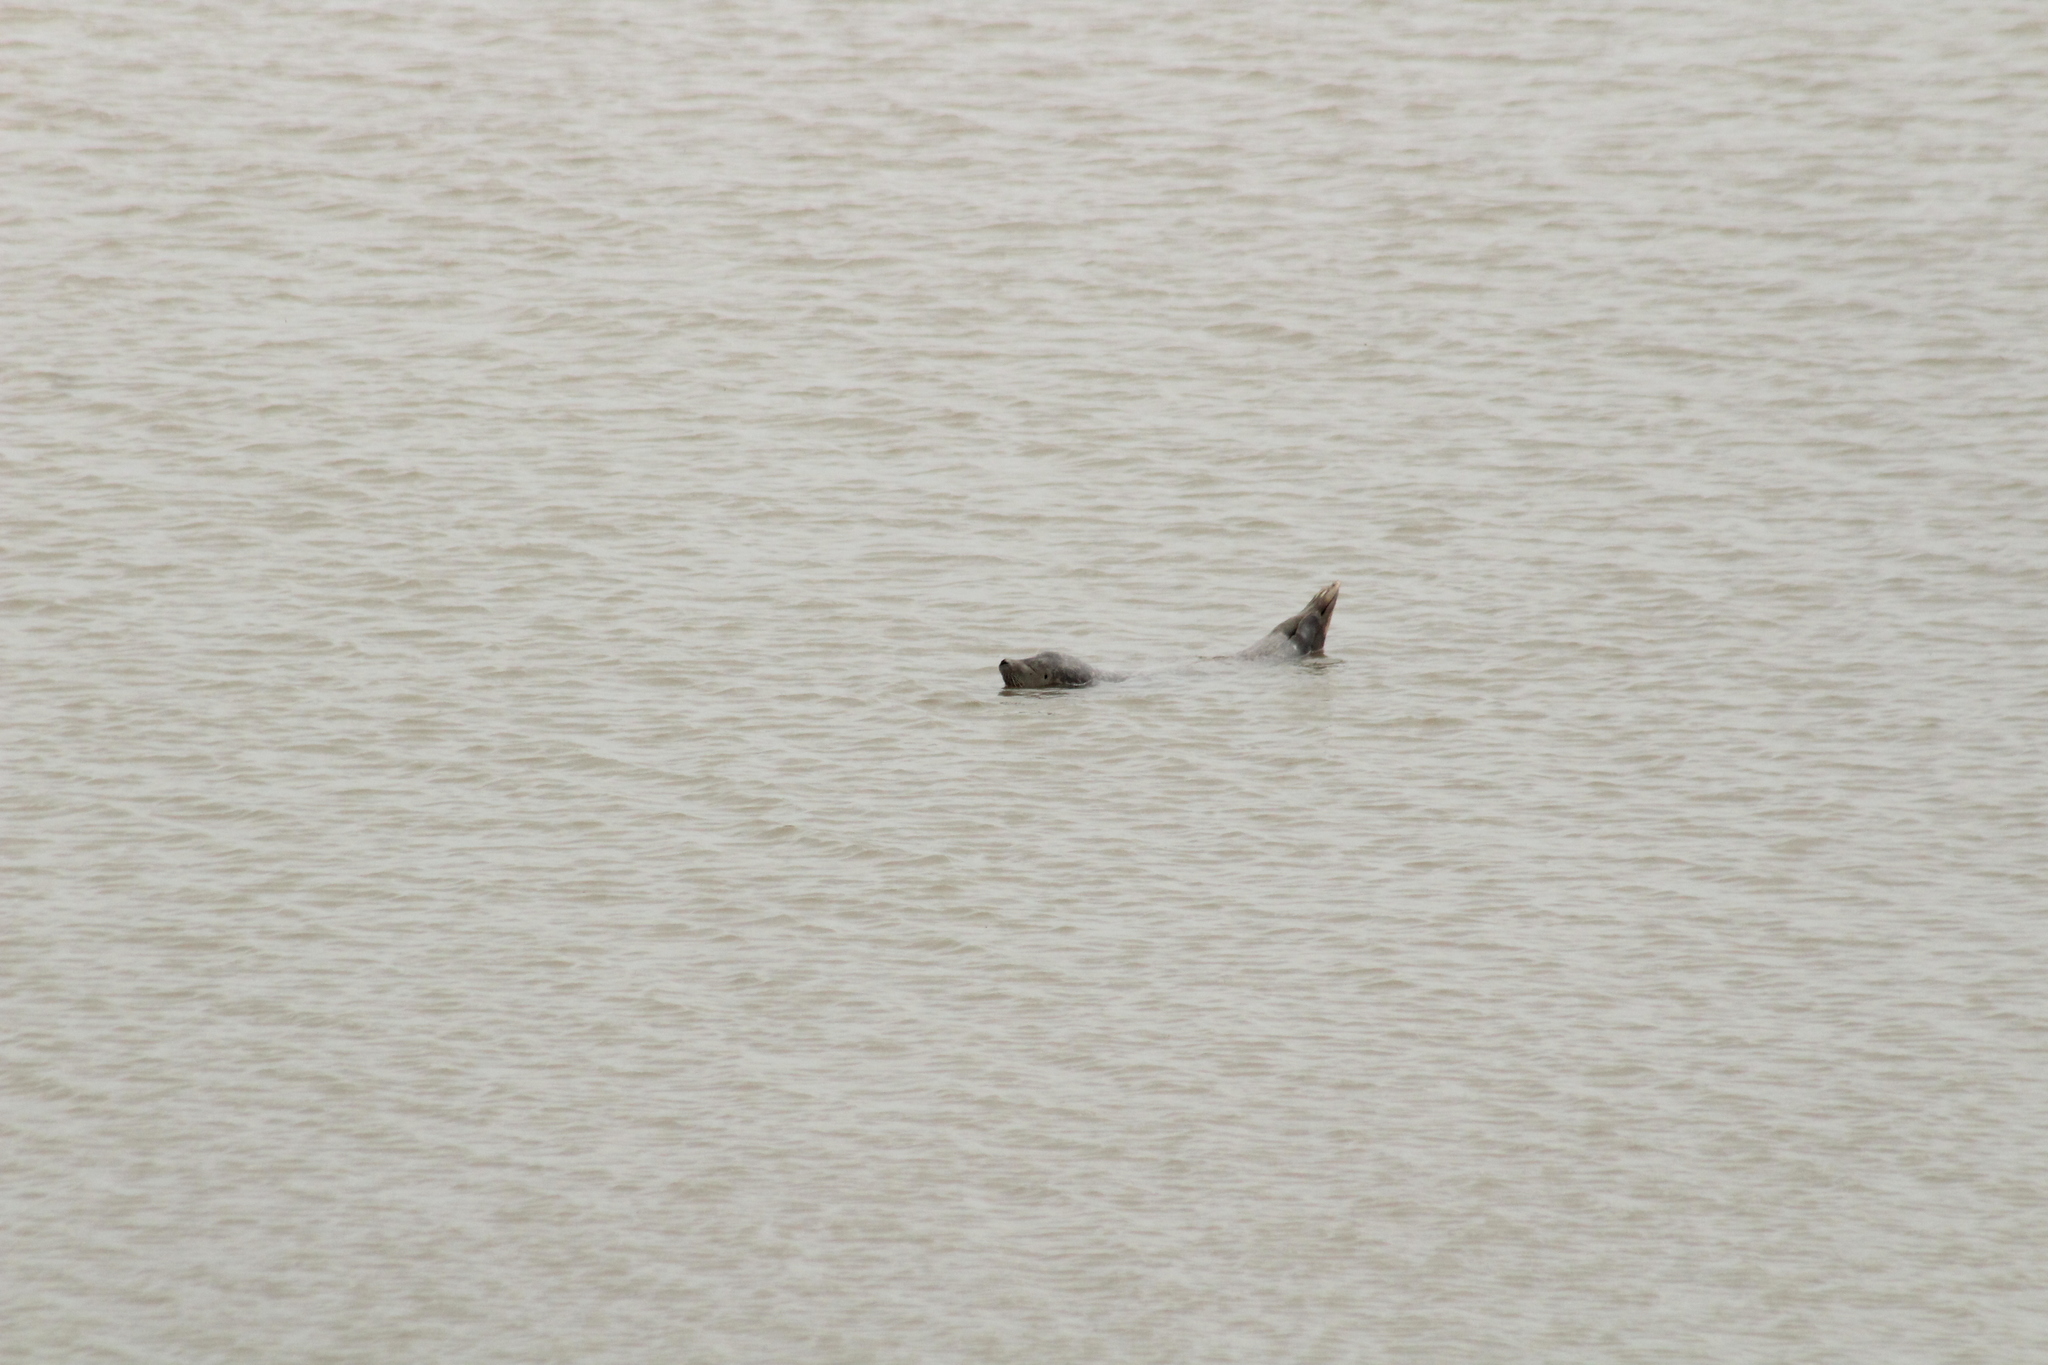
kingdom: Animalia
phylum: Chordata
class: Mammalia
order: Carnivora
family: Phocidae
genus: Phoca
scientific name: Phoca vitulina
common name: Harbor seal
